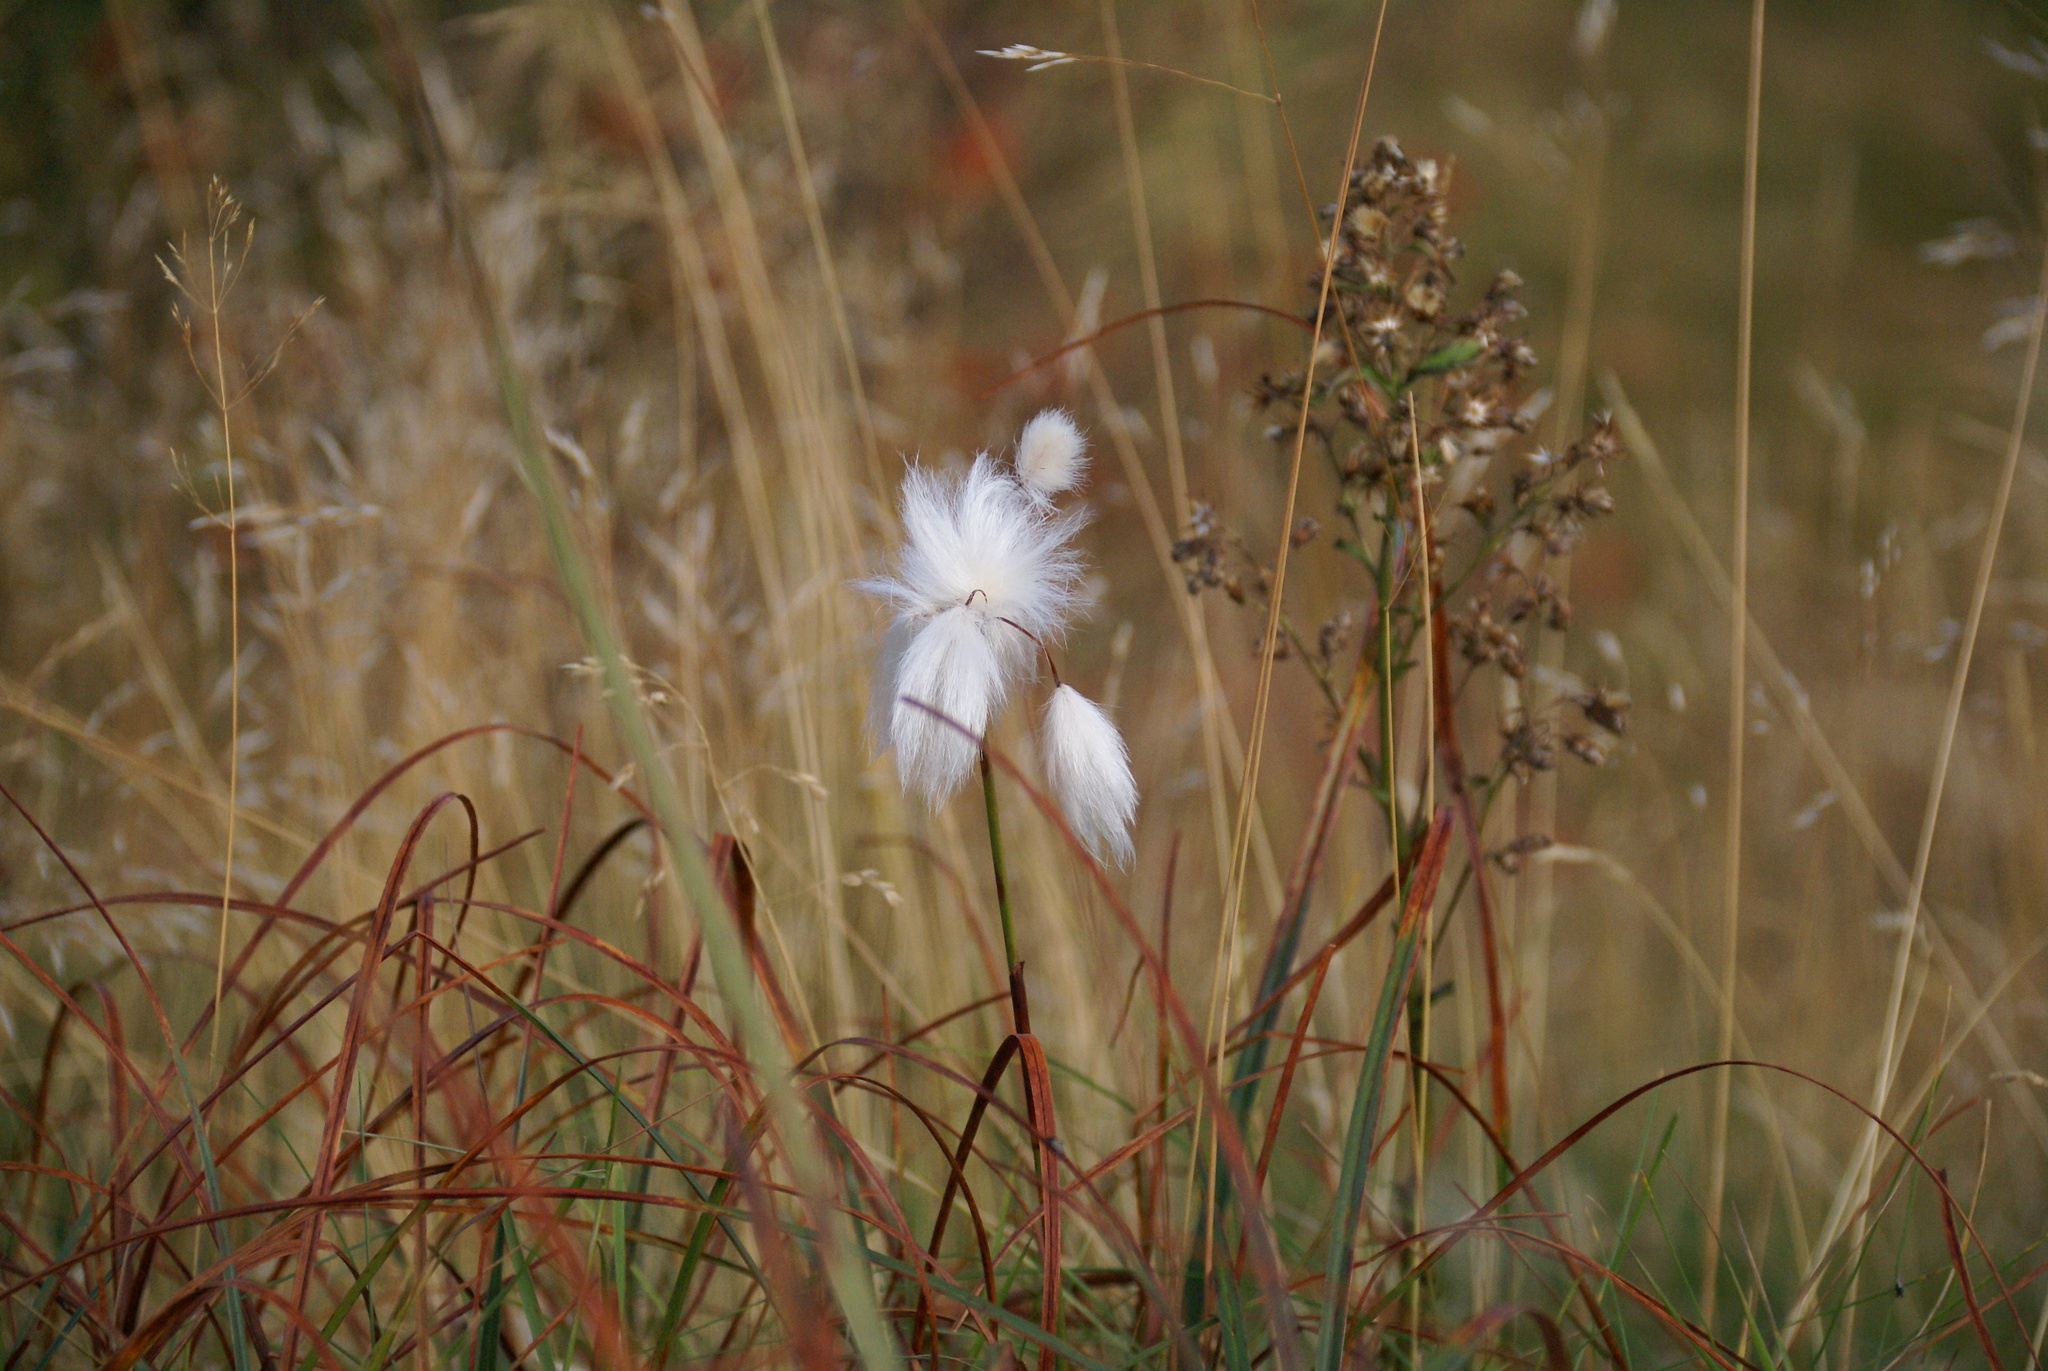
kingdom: Plantae
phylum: Tracheophyta
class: Liliopsida
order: Poales
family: Cyperaceae
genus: Eriophorum
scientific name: Eriophorum latifolium
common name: Broad-leaved cottongrass
